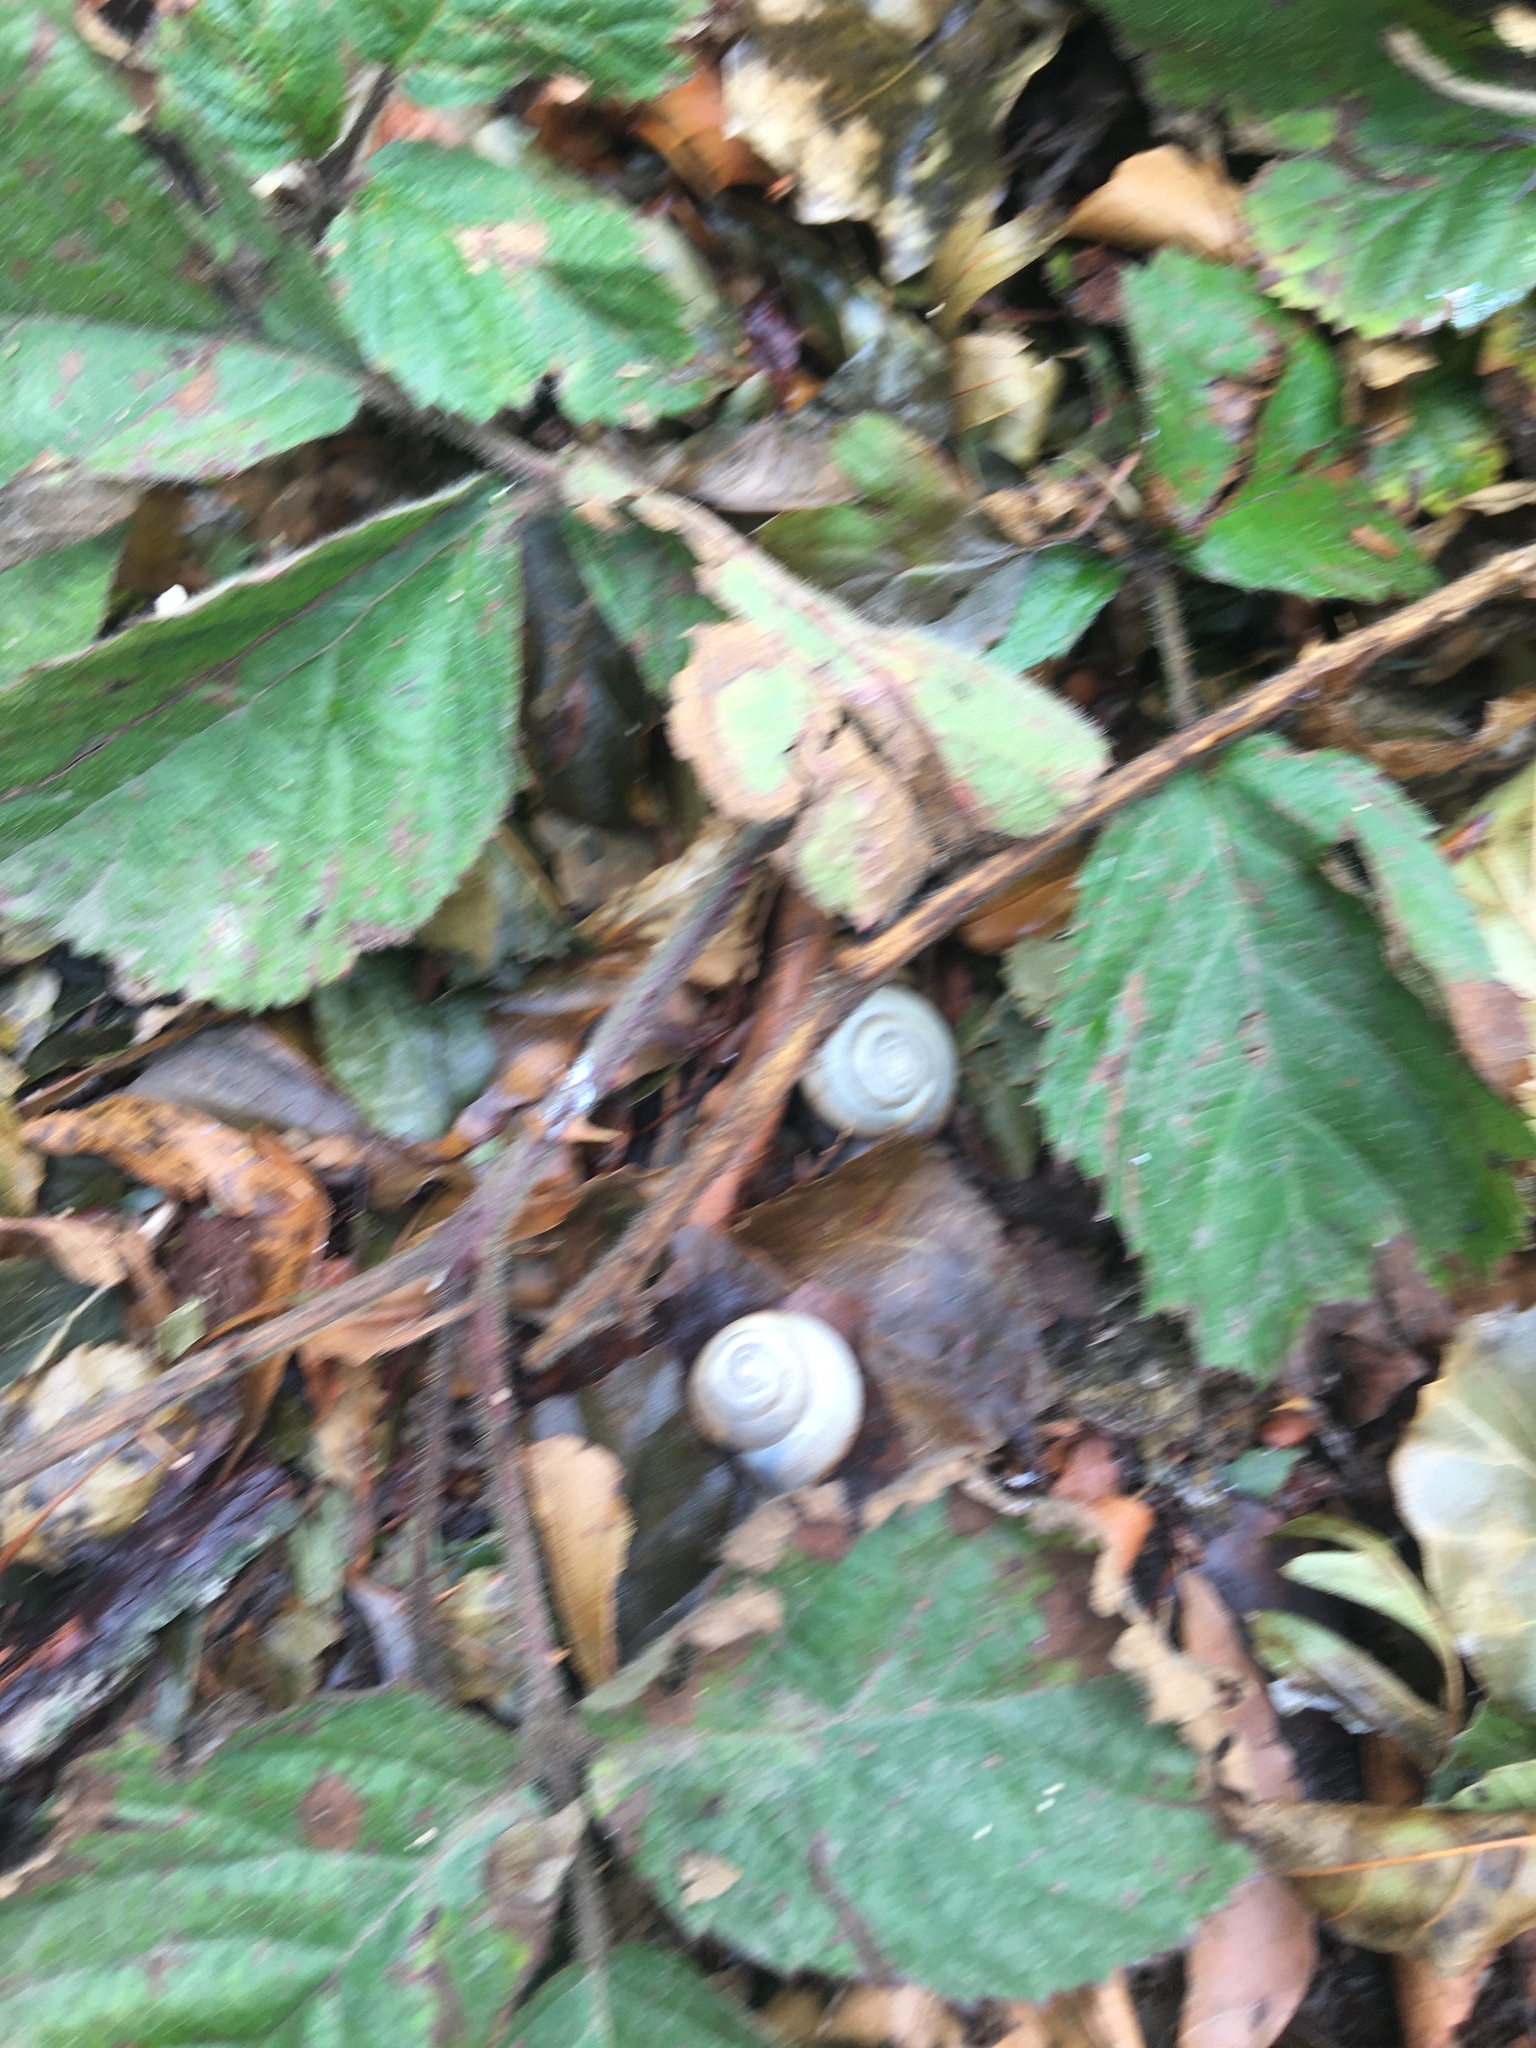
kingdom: Animalia
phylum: Mollusca
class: Gastropoda
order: Stylommatophora
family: Hygromiidae
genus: Monacha
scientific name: Monacha cantiana
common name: Kentish snail
